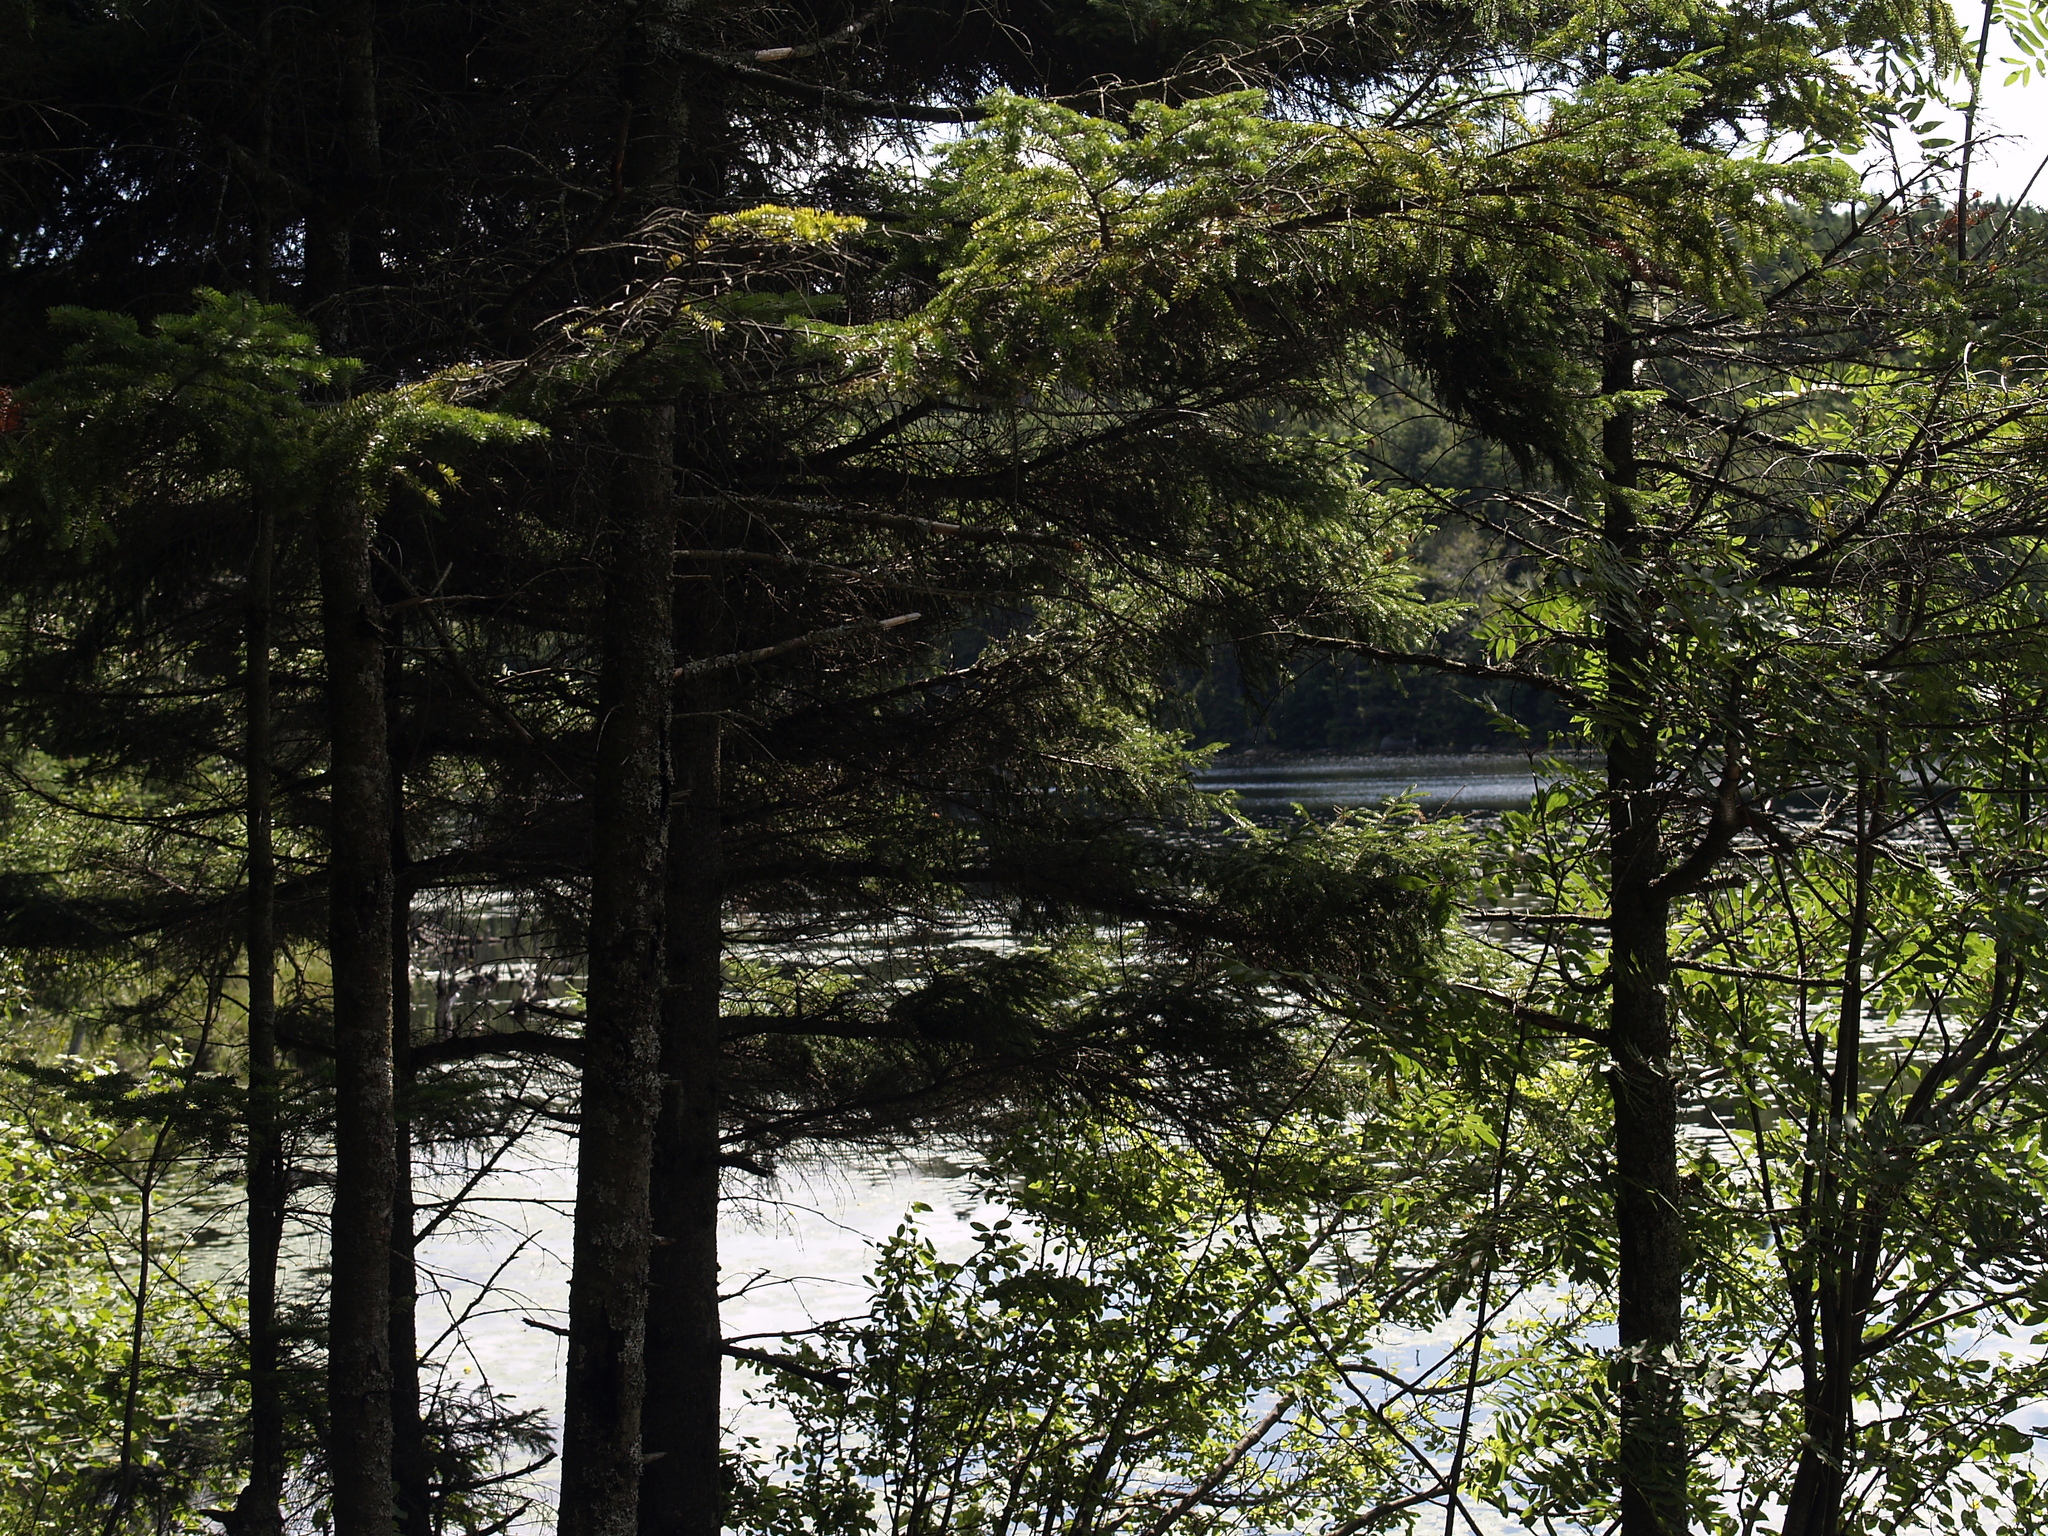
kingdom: Plantae
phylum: Tracheophyta
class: Pinopsida
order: Pinales
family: Pinaceae
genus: Tsuga
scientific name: Tsuga canadensis
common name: Eastern hemlock
